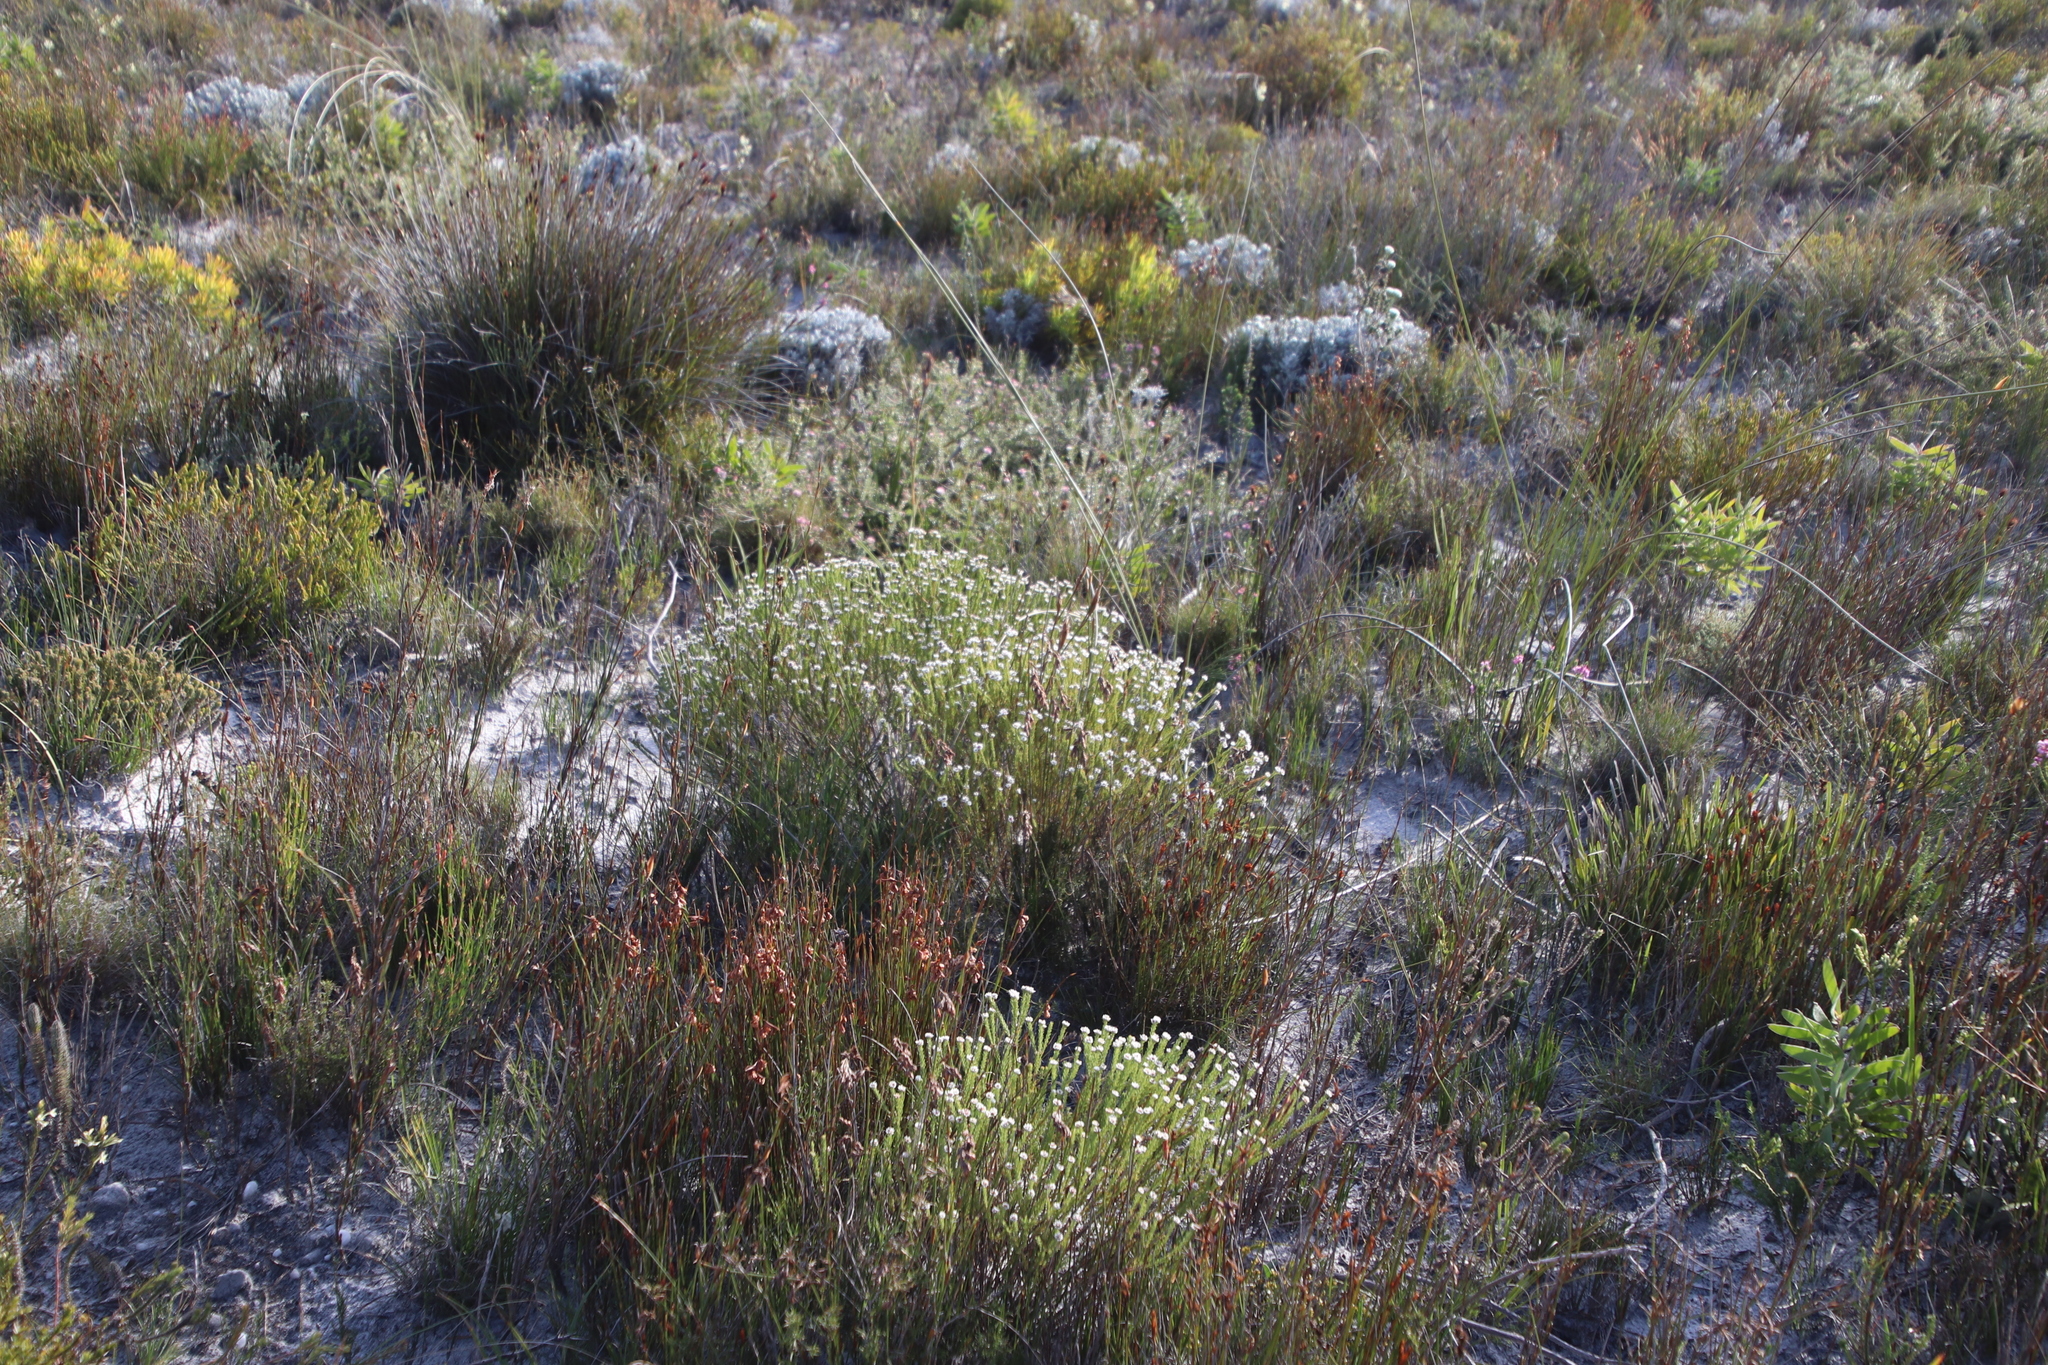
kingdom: Plantae
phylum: Tracheophyta
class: Magnoliopsida
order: Bruniales
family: Bruniaceae
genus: Staavia
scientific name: Staavia radiata
